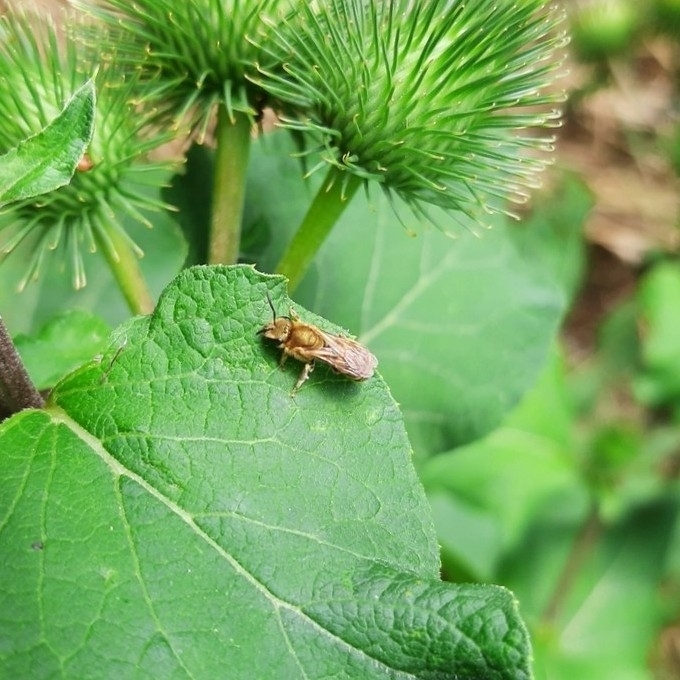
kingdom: Animalia
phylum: Arthropoda
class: Insecta
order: Hymenoptera
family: Halictidae
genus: Seladonia
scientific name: Seladonia
